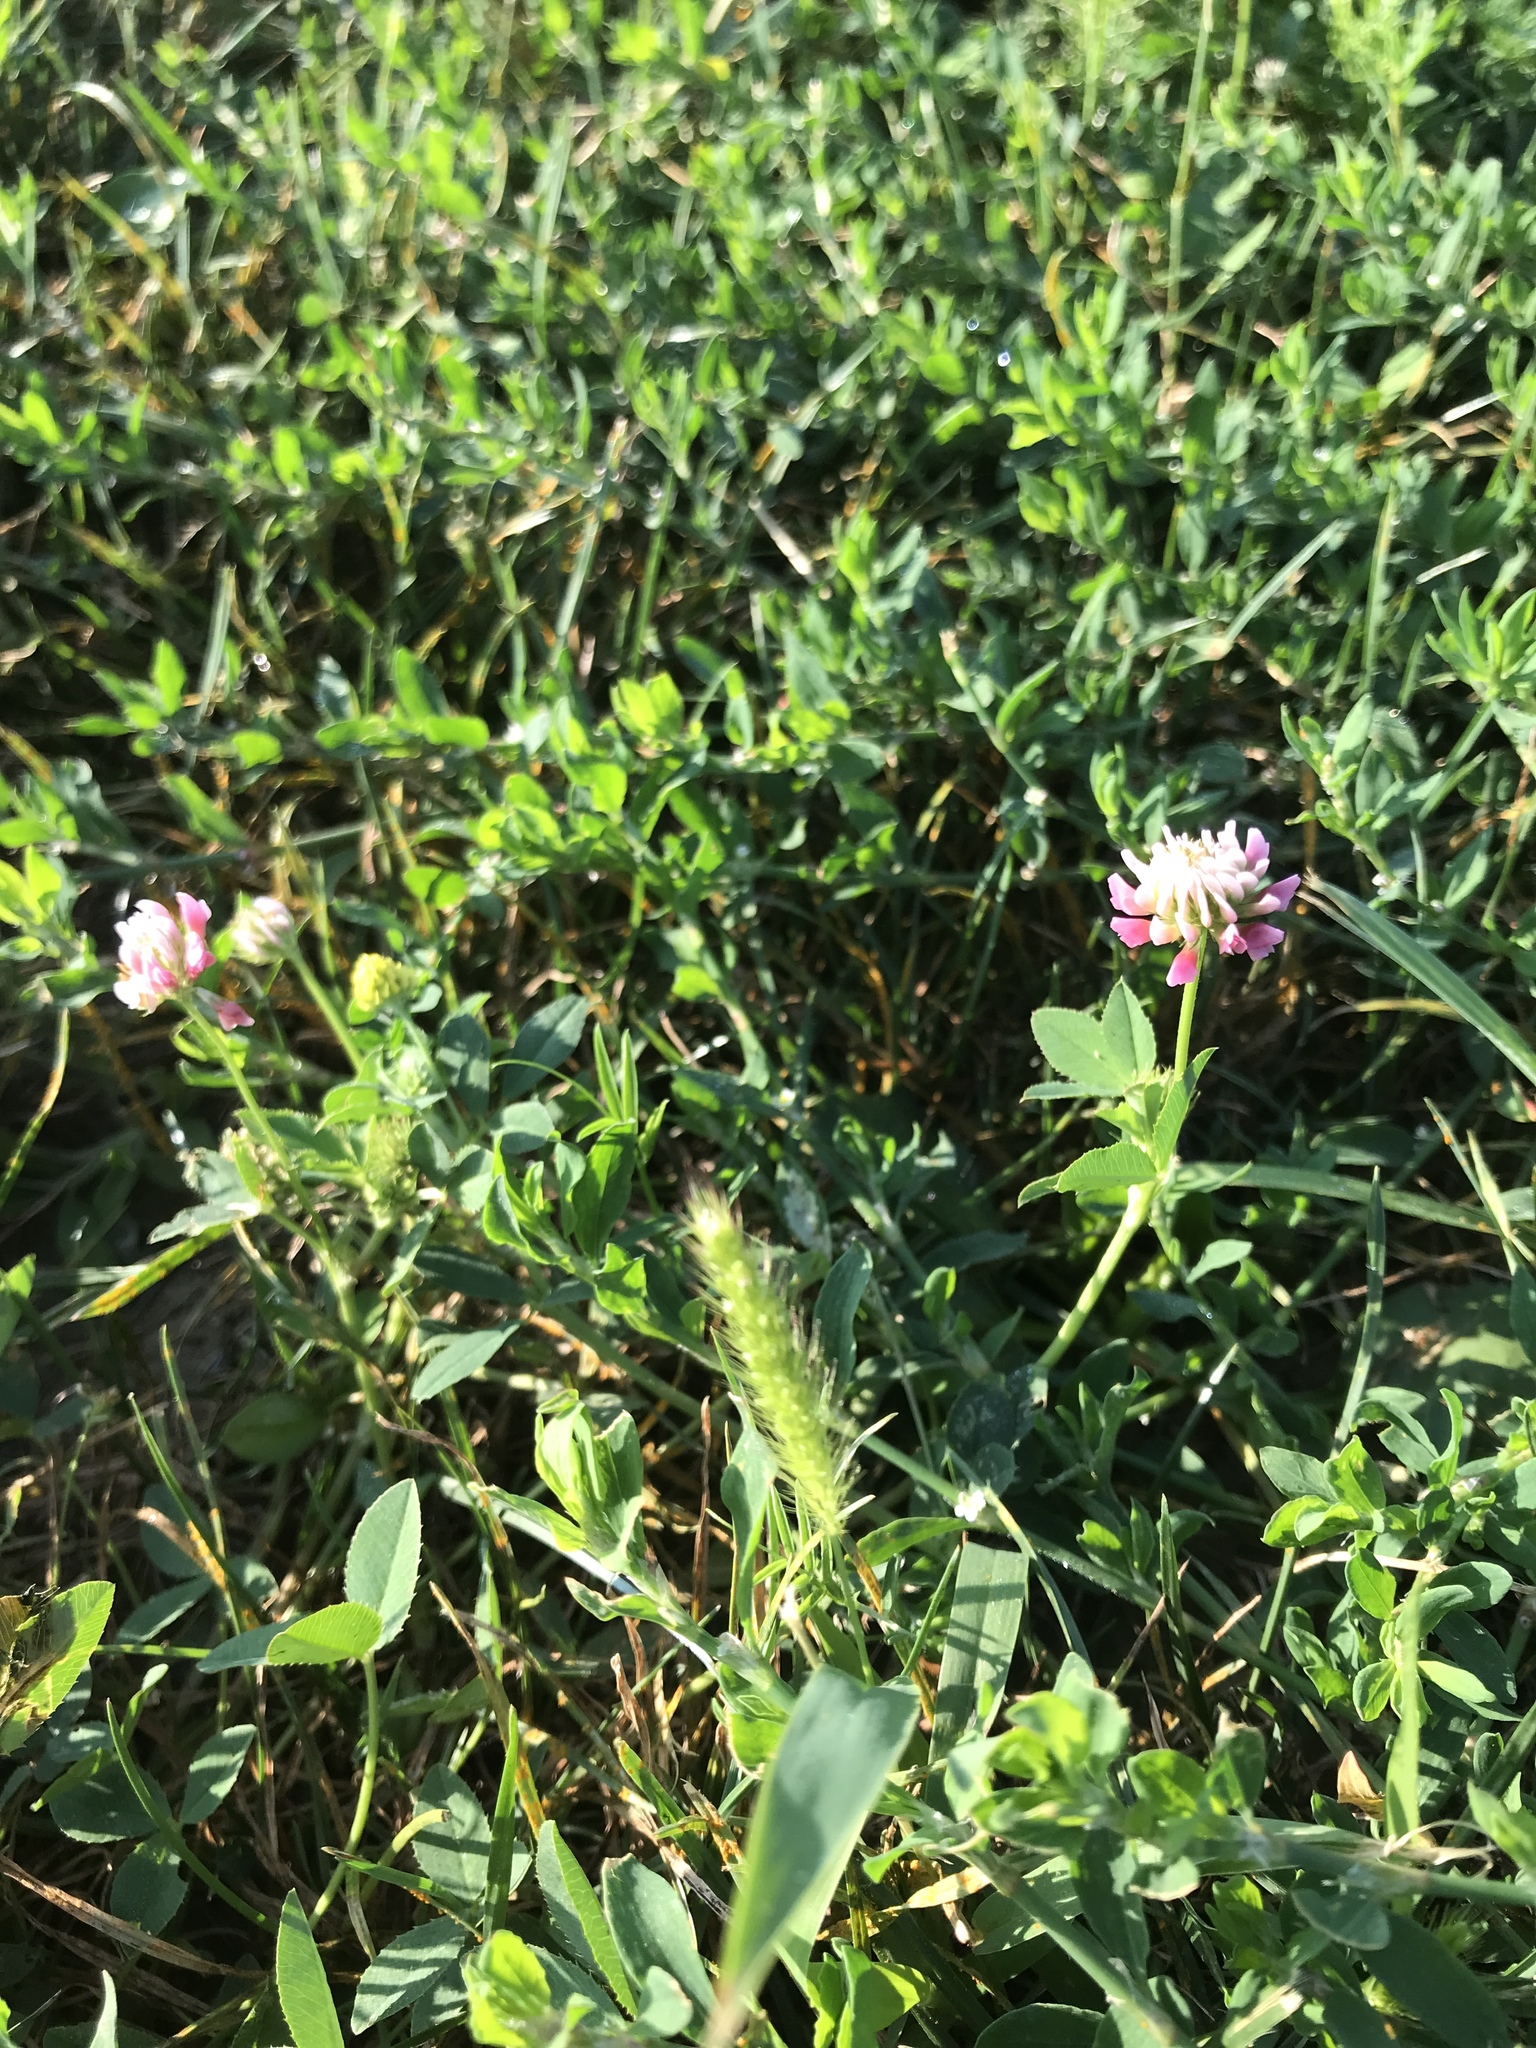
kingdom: Plantae
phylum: Tracheophyta
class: Magnoliopsida
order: Fabales
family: Fabaceae
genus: Trifolium
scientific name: Trifolium hybridum
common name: Alsike clover
